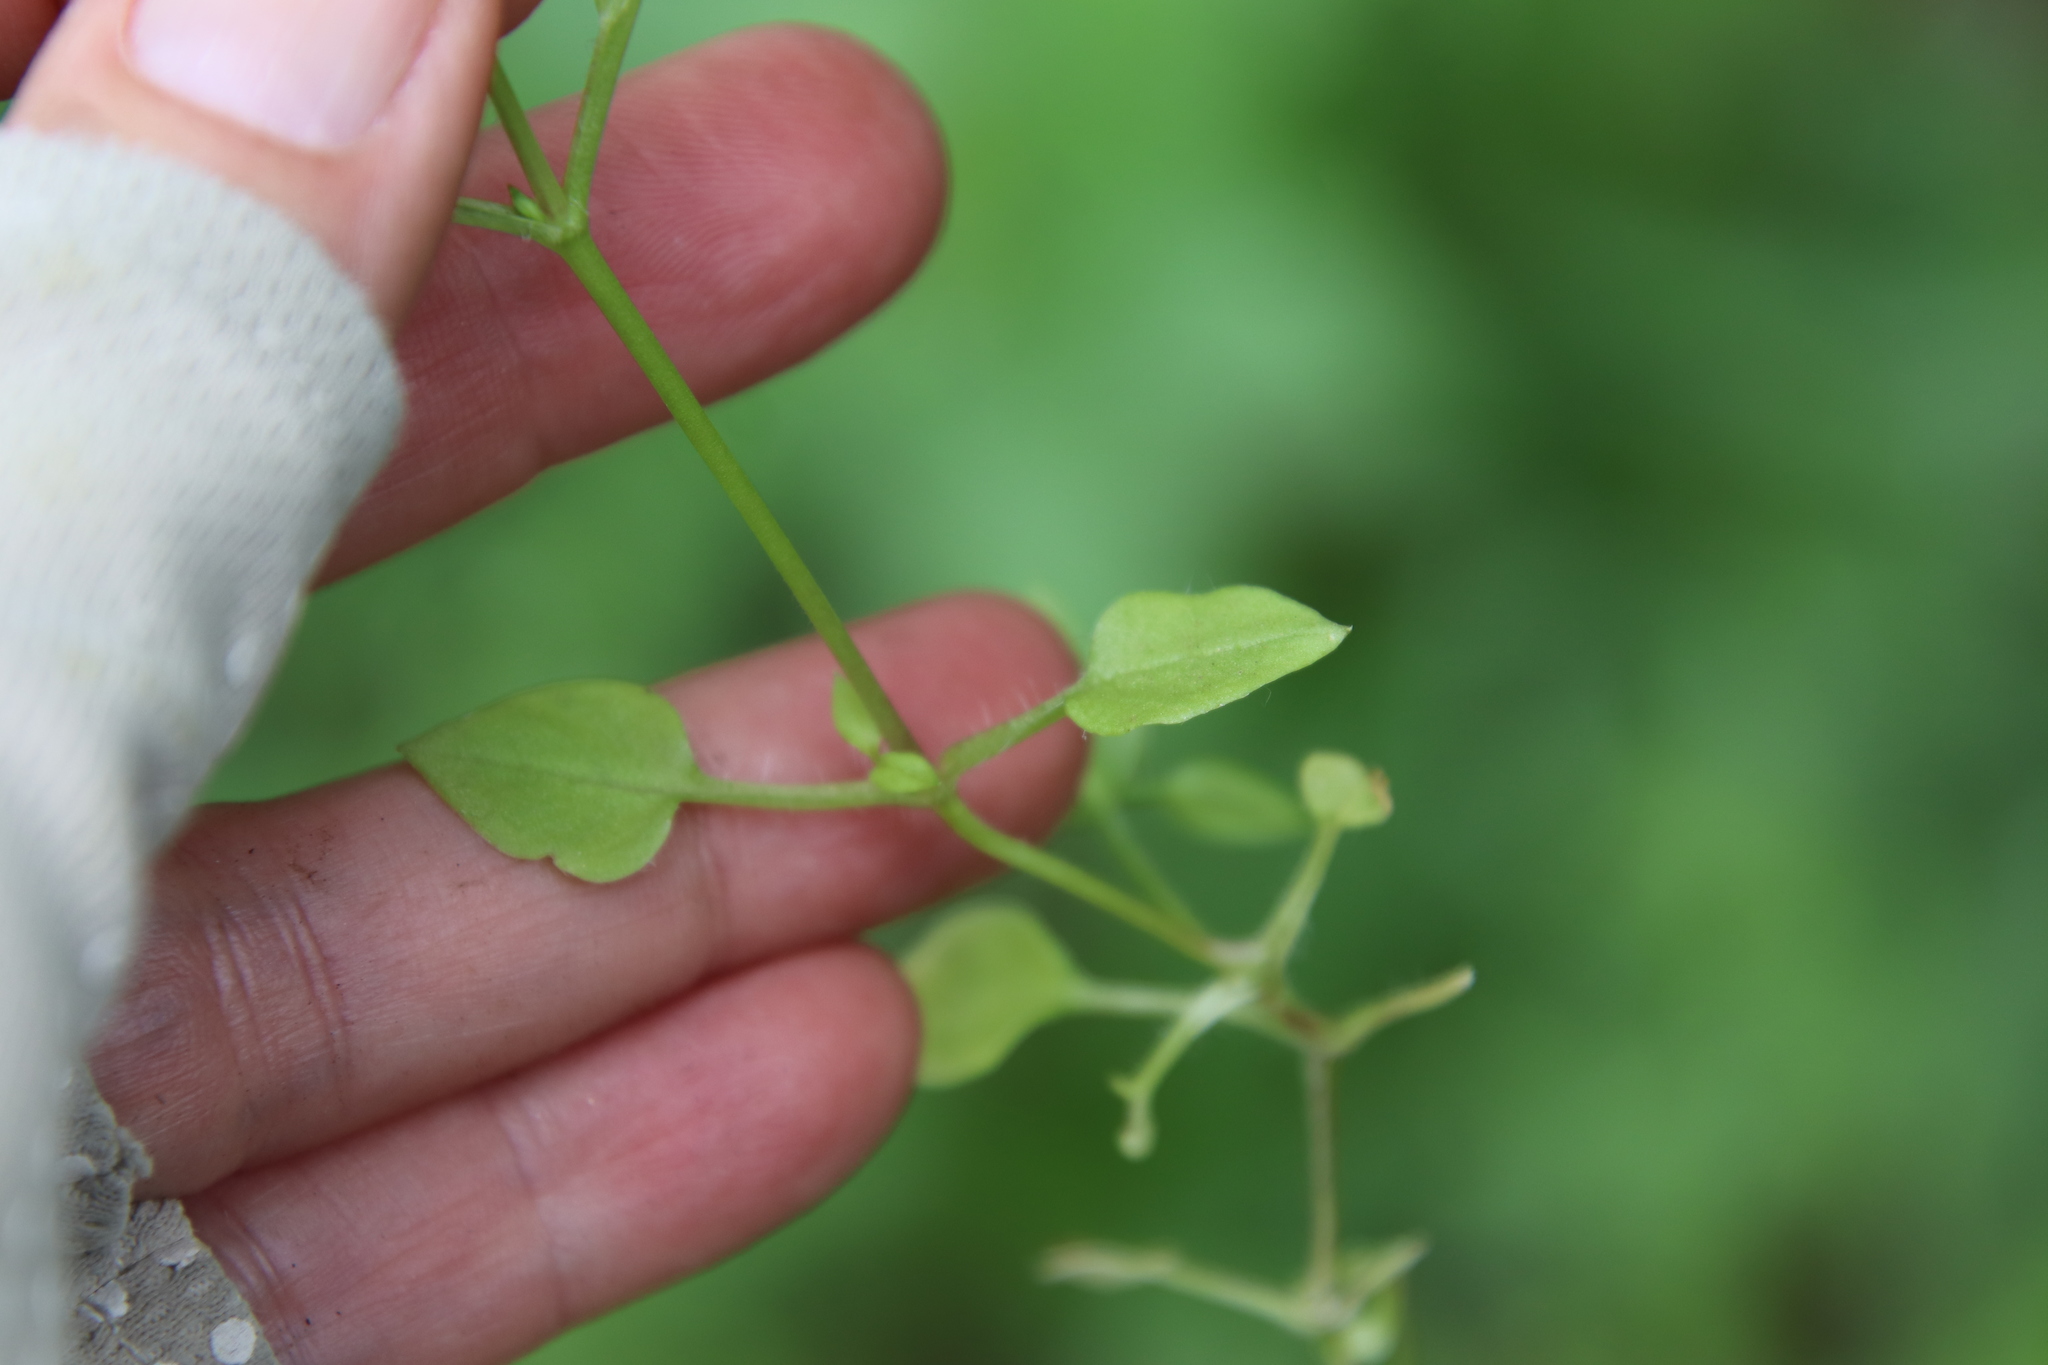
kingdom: Plantae
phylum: Tracheophyta
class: Magnoliopsida
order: Caryophyllales
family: Caryophyllaceae
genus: Stellaria
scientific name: Stellaria neglecta
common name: Greater chickweed
